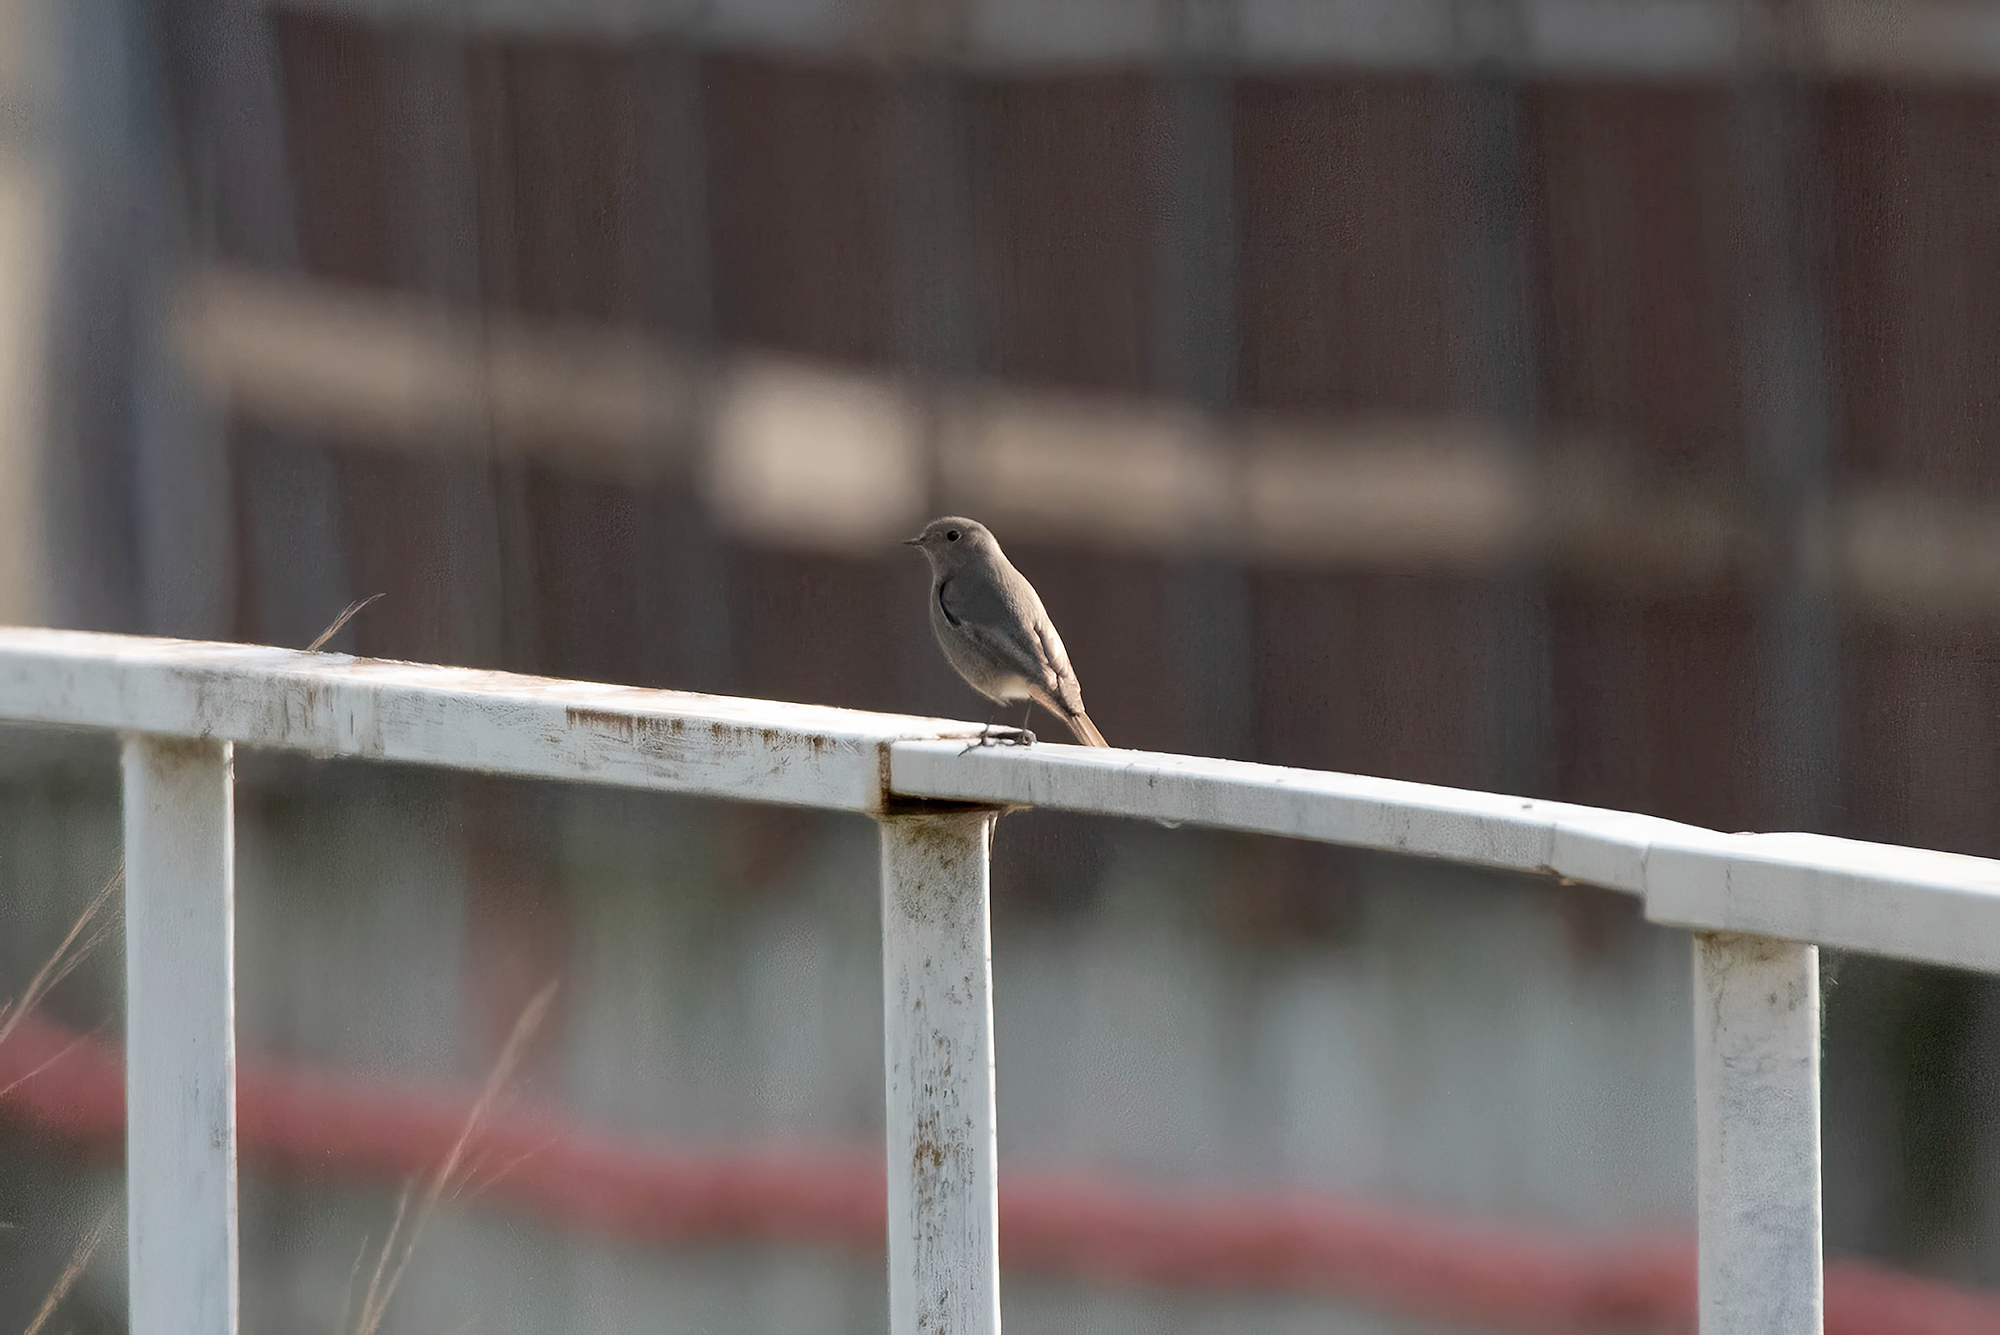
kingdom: Animalia
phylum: Chordata
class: Aves
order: Passeriformes
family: Muscicapidae
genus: Phoenicurus
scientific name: Phoenicurus ochruros
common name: Black redstart
